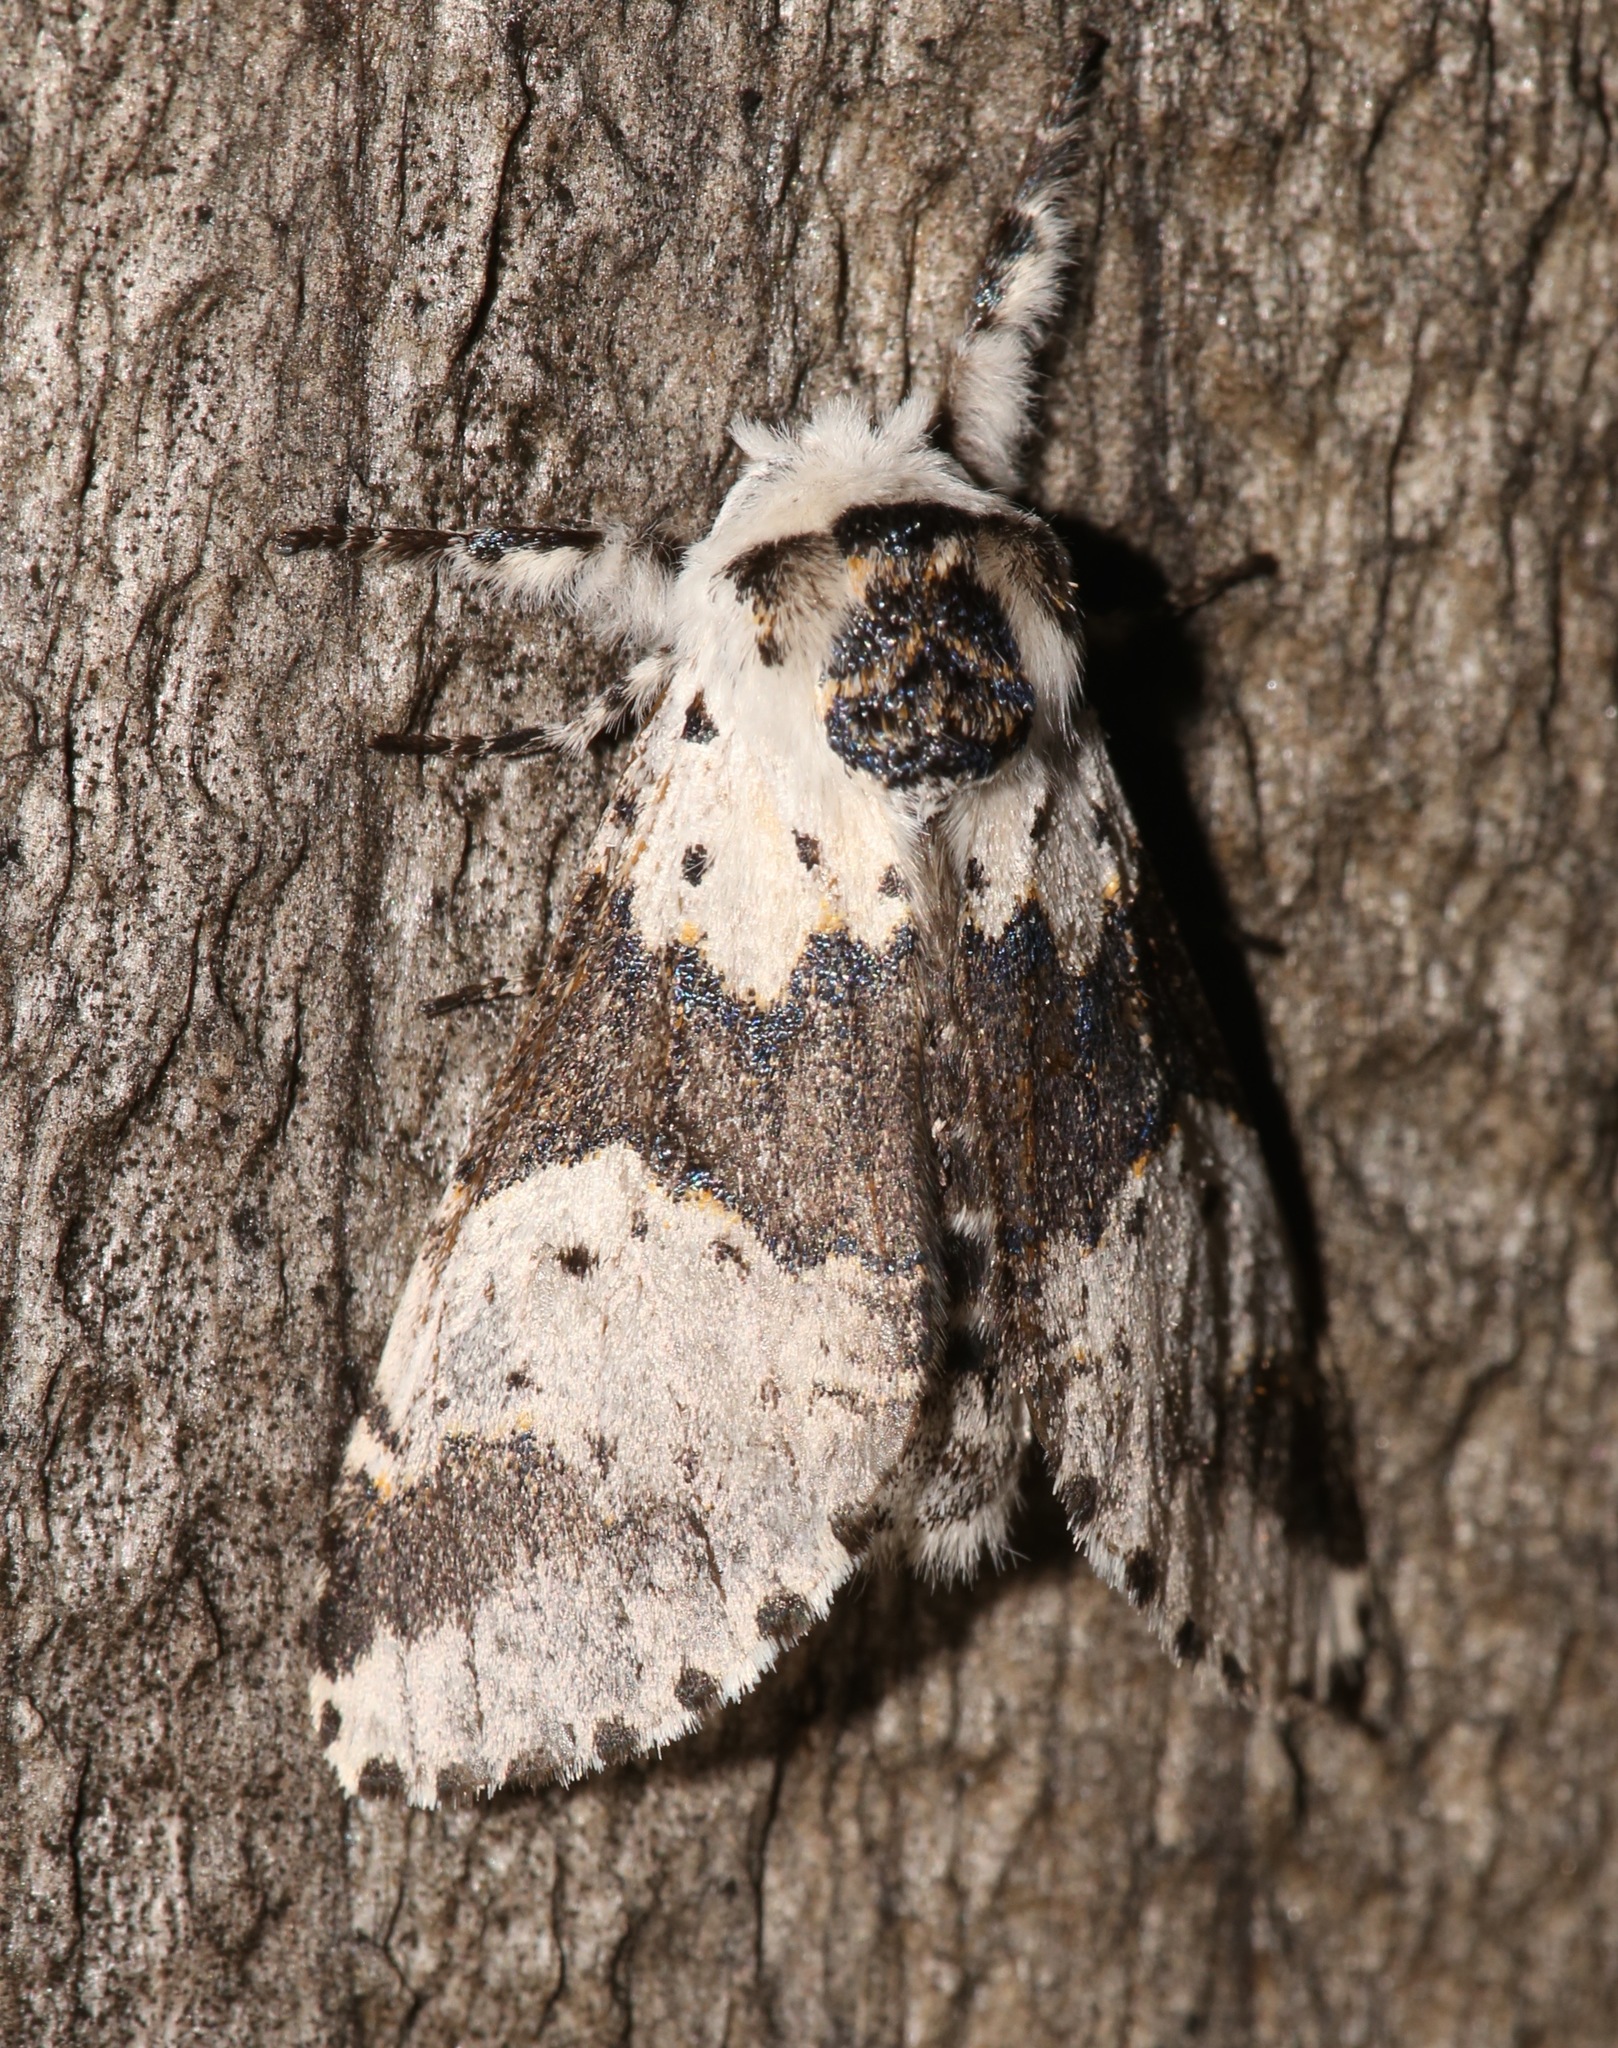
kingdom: Animalia
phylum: Arthropoda
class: Insecta
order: Lepidoptera
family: Notodontidae
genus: Furcula
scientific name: Furcula borealis
